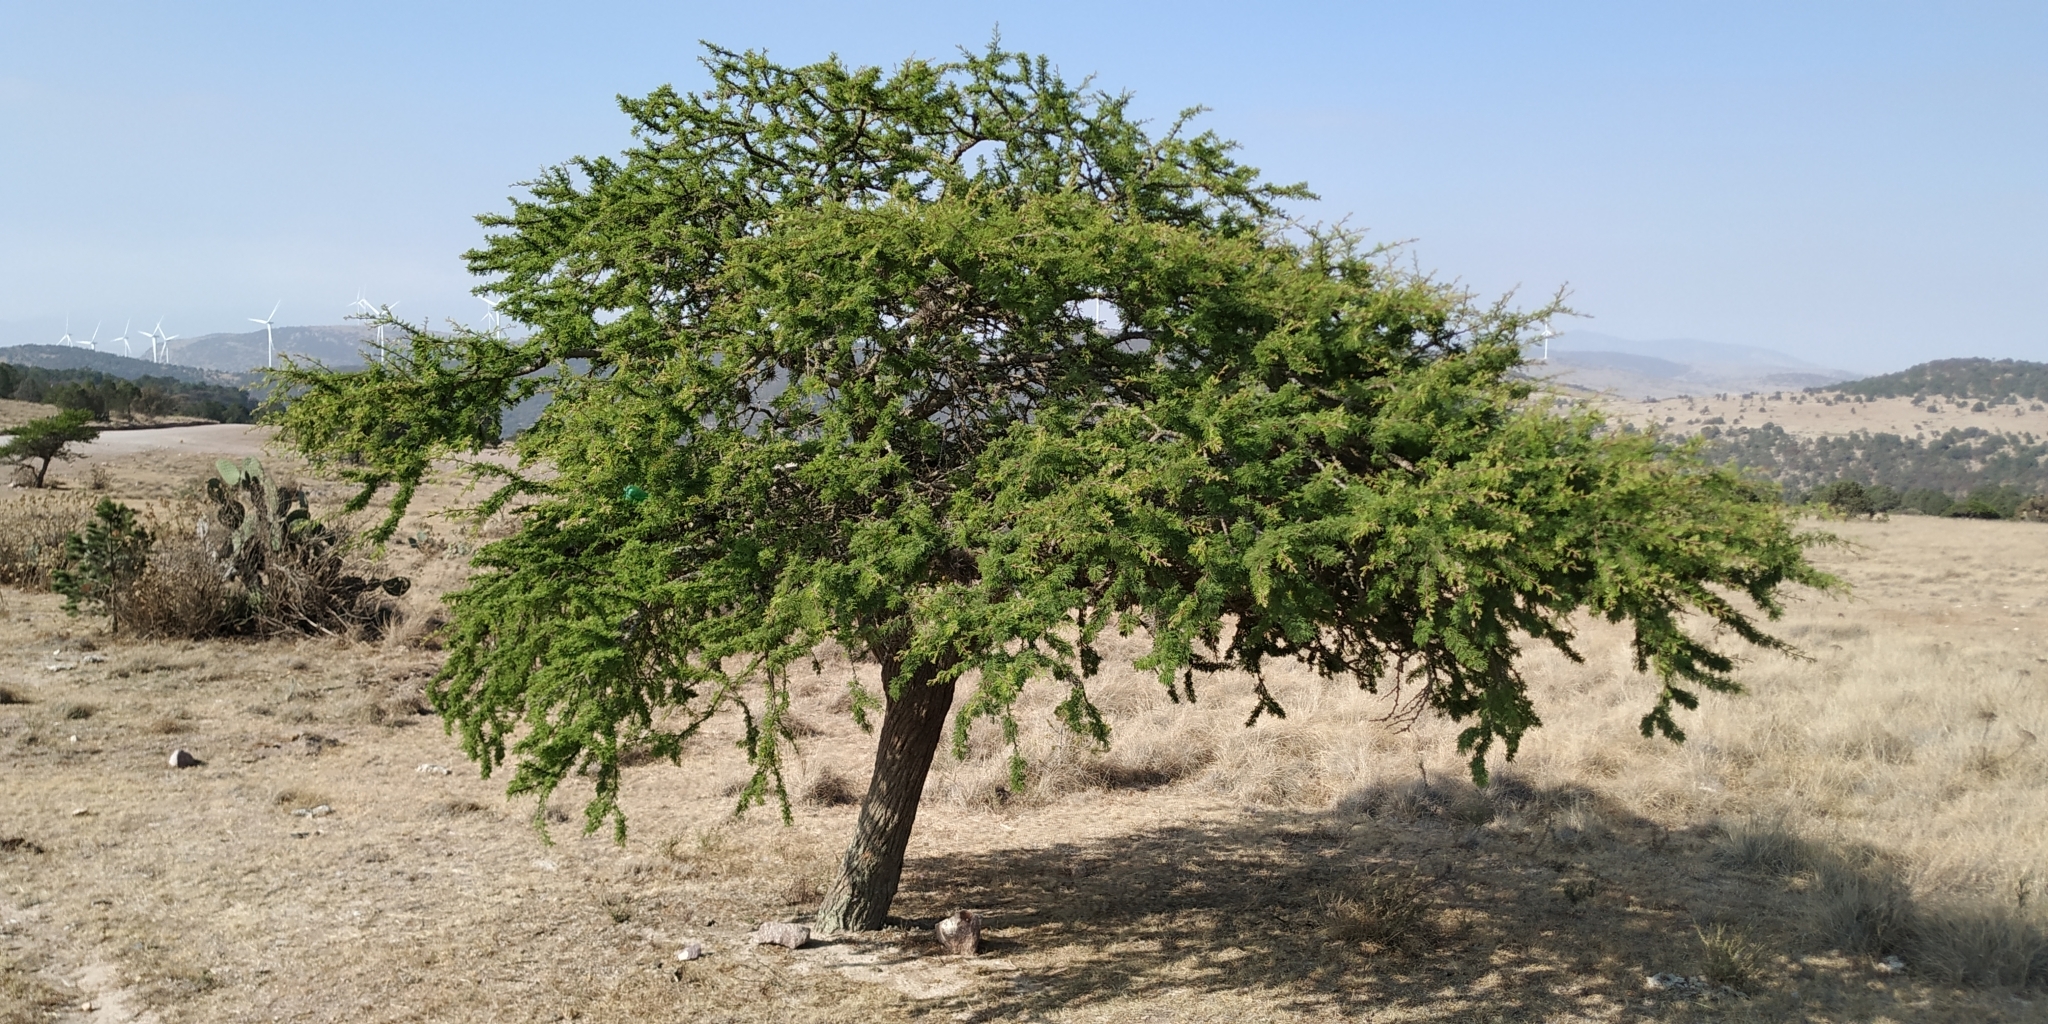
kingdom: Plantae
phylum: Tracheophyta
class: Magnoliopsida
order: Fabales
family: Fabaceae
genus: Vachellia
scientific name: Vachellia schaffneri
